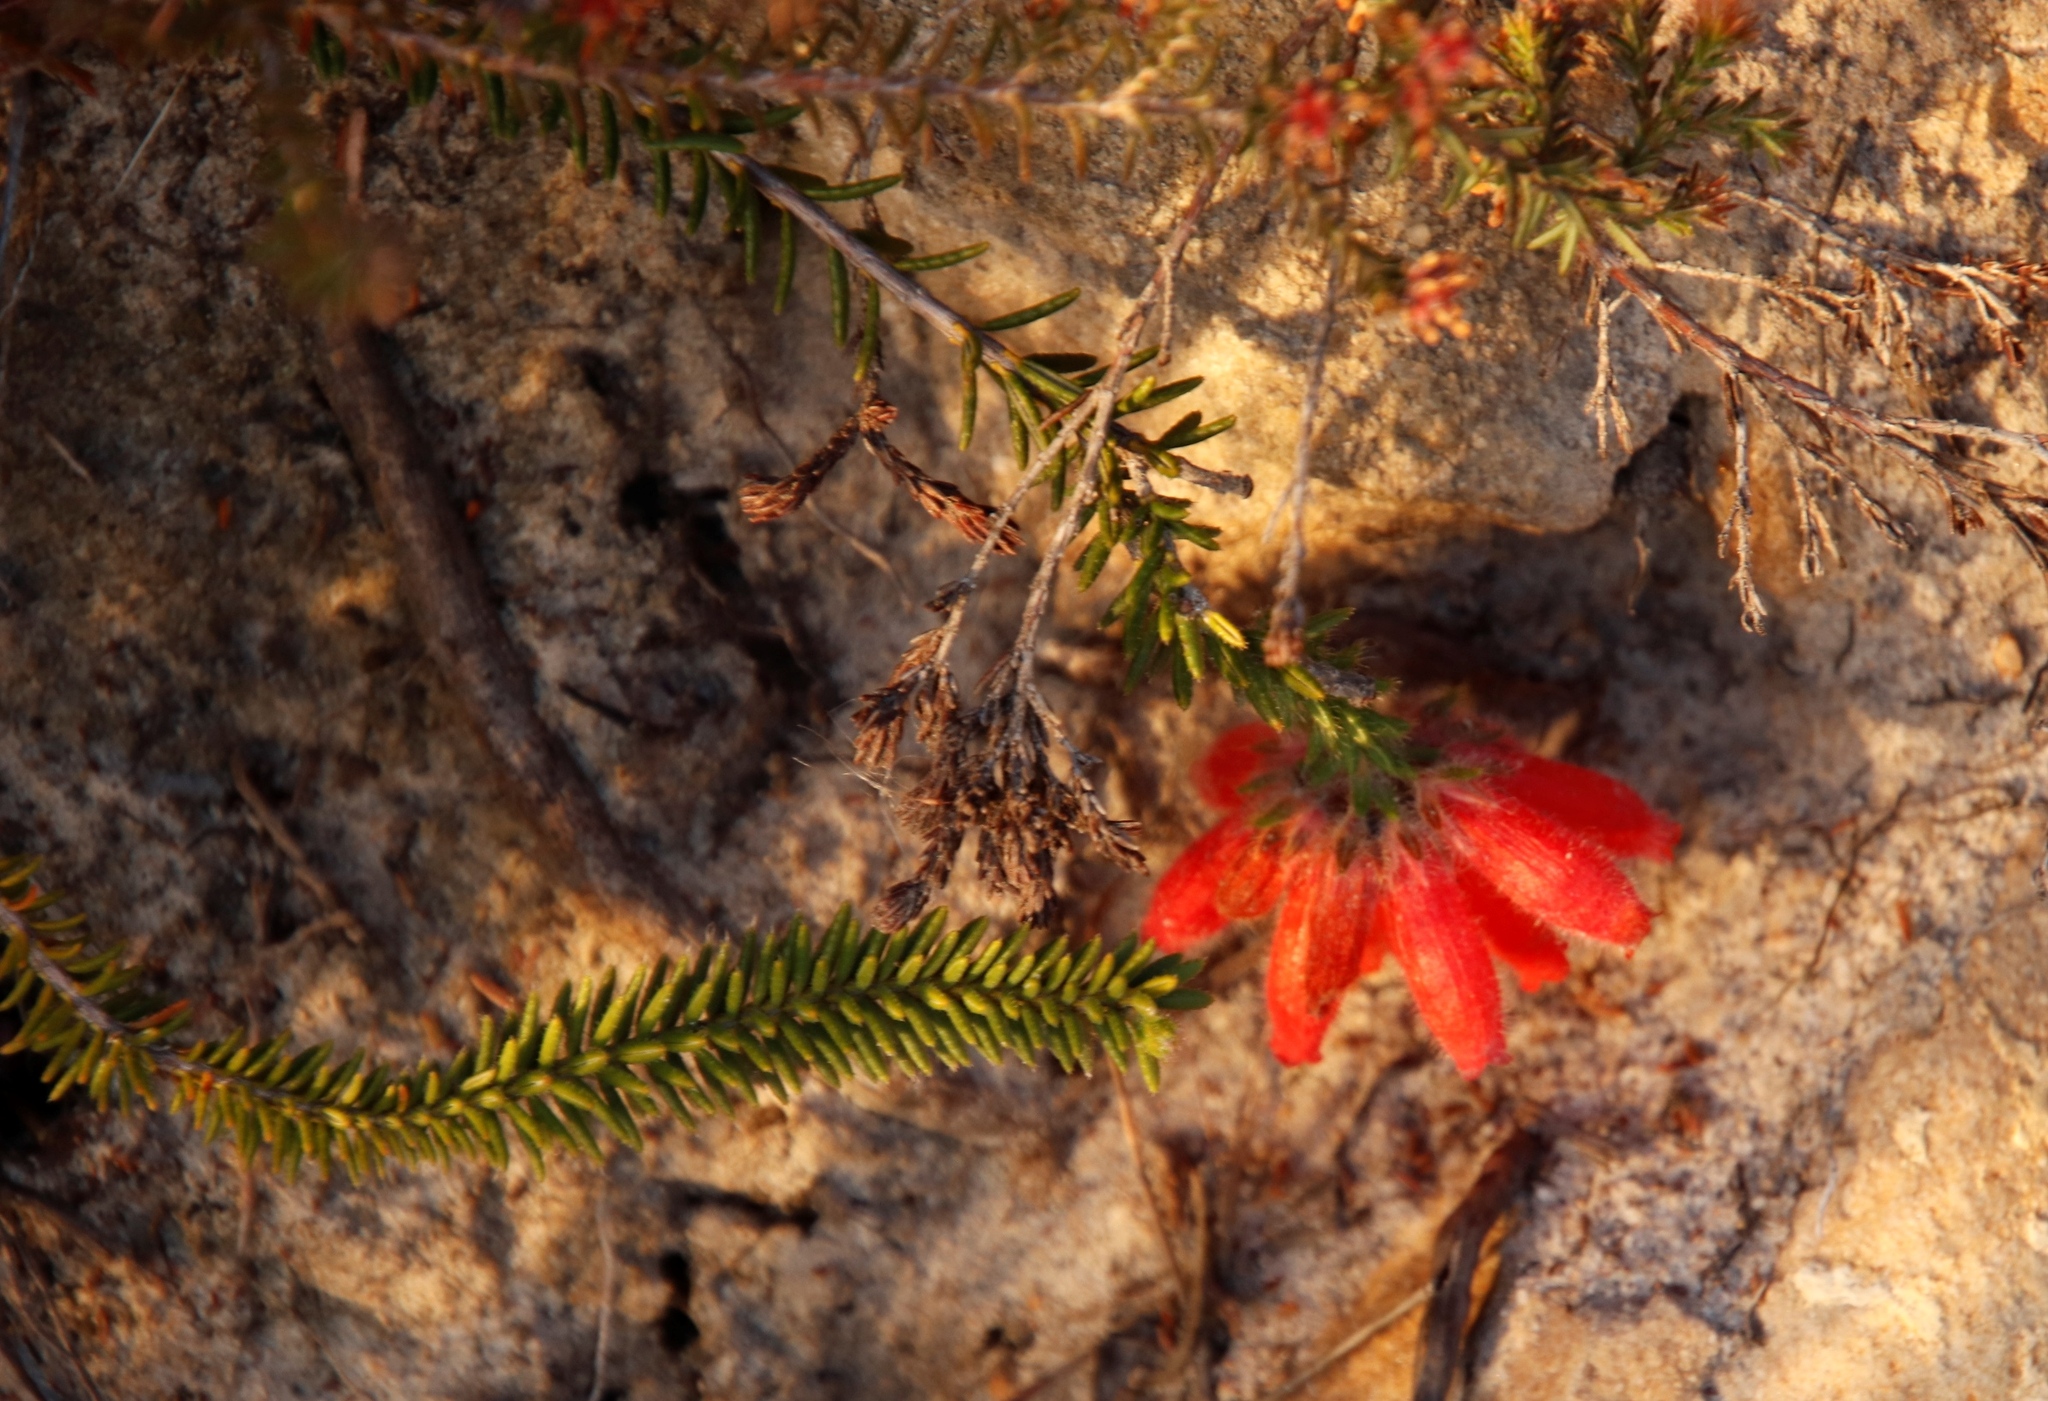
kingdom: Plantae
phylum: Tracheophyta
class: Magnoliopsida
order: Ericales
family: Ericaceae
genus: Erica
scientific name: Erica cerinthoides
